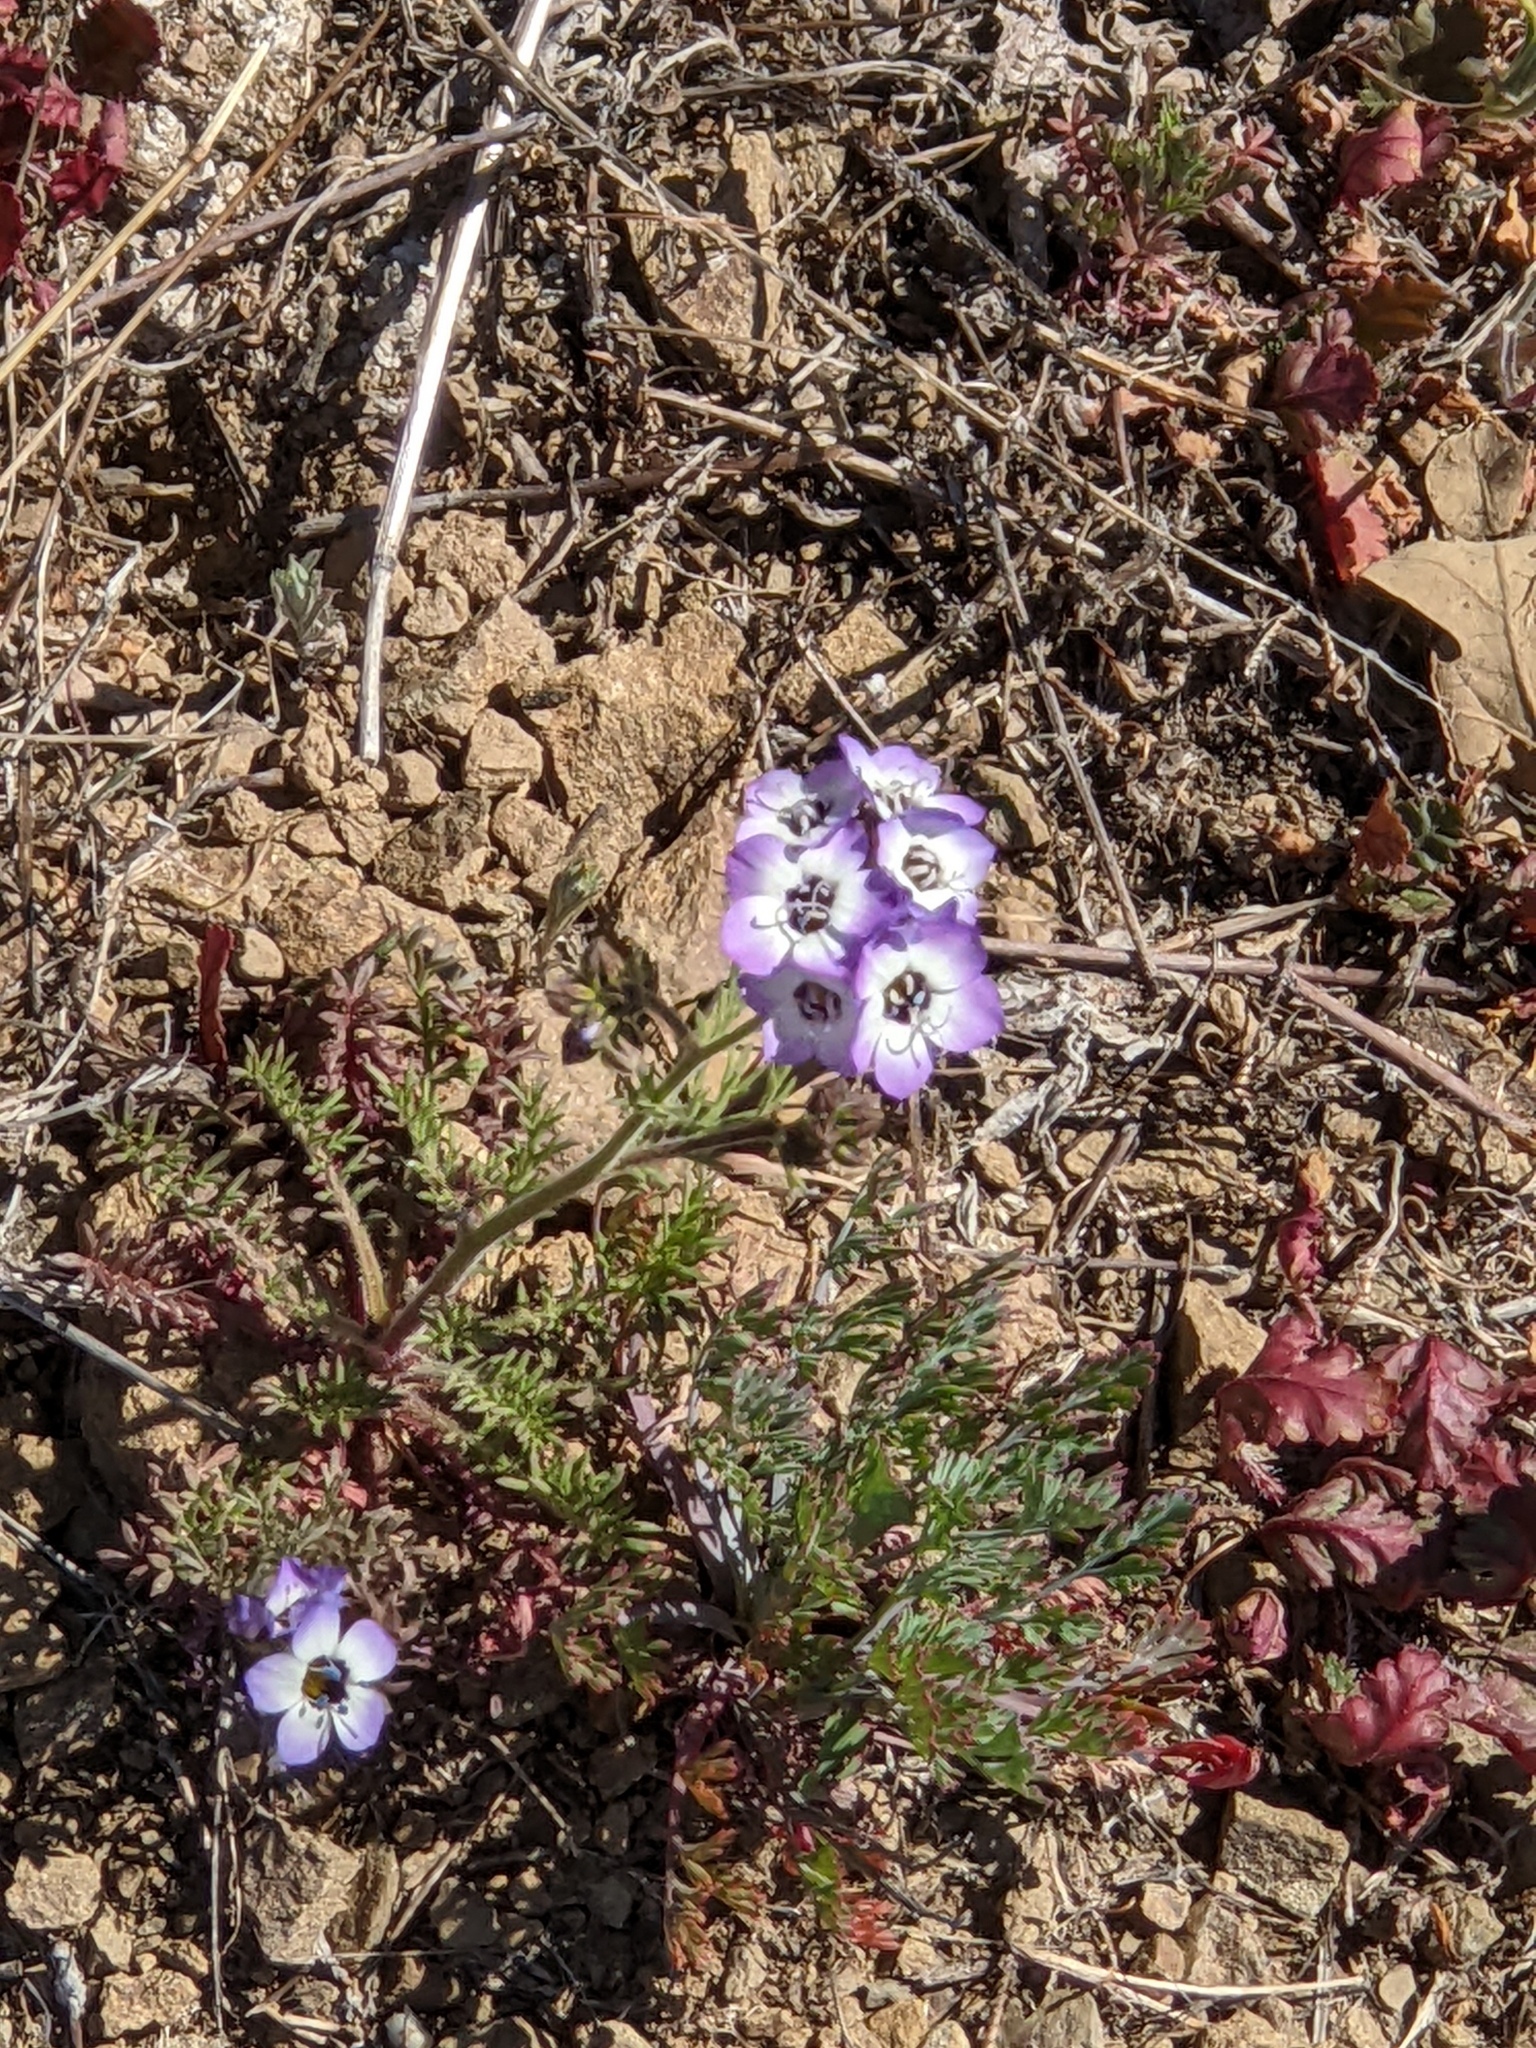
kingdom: Plantae
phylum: Tracheophyta
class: Magnoliopsida
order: Ericales
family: Polemoniaceae
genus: Gilia
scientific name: Gilia tricolor
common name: Bird's-eyes
